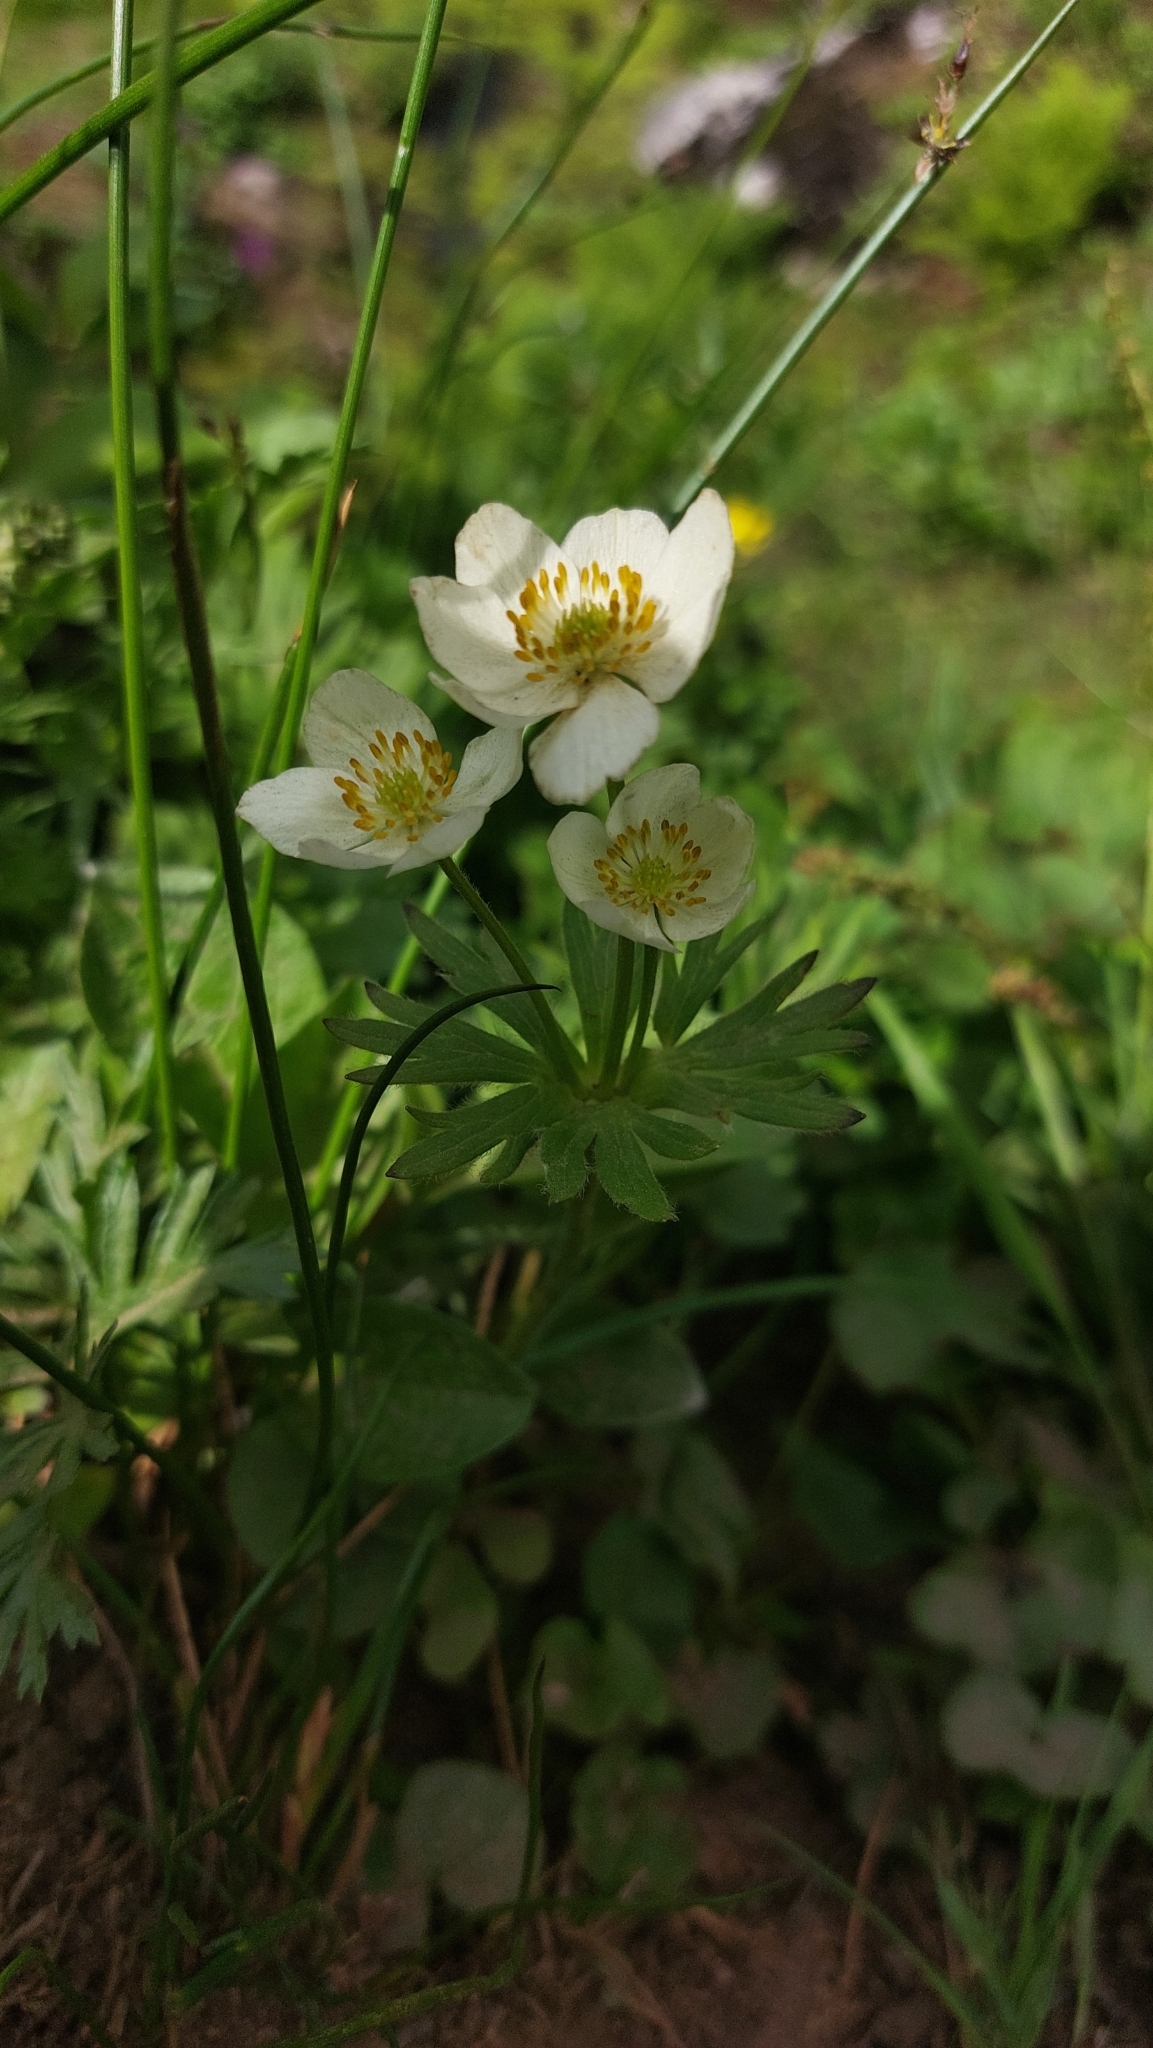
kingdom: Plantae
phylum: Tracheophyta
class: Magnoliopsida
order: Ranunculales
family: Ranunculaceae
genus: Anemonastrum
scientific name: Anemonastrum narcissiflorum
